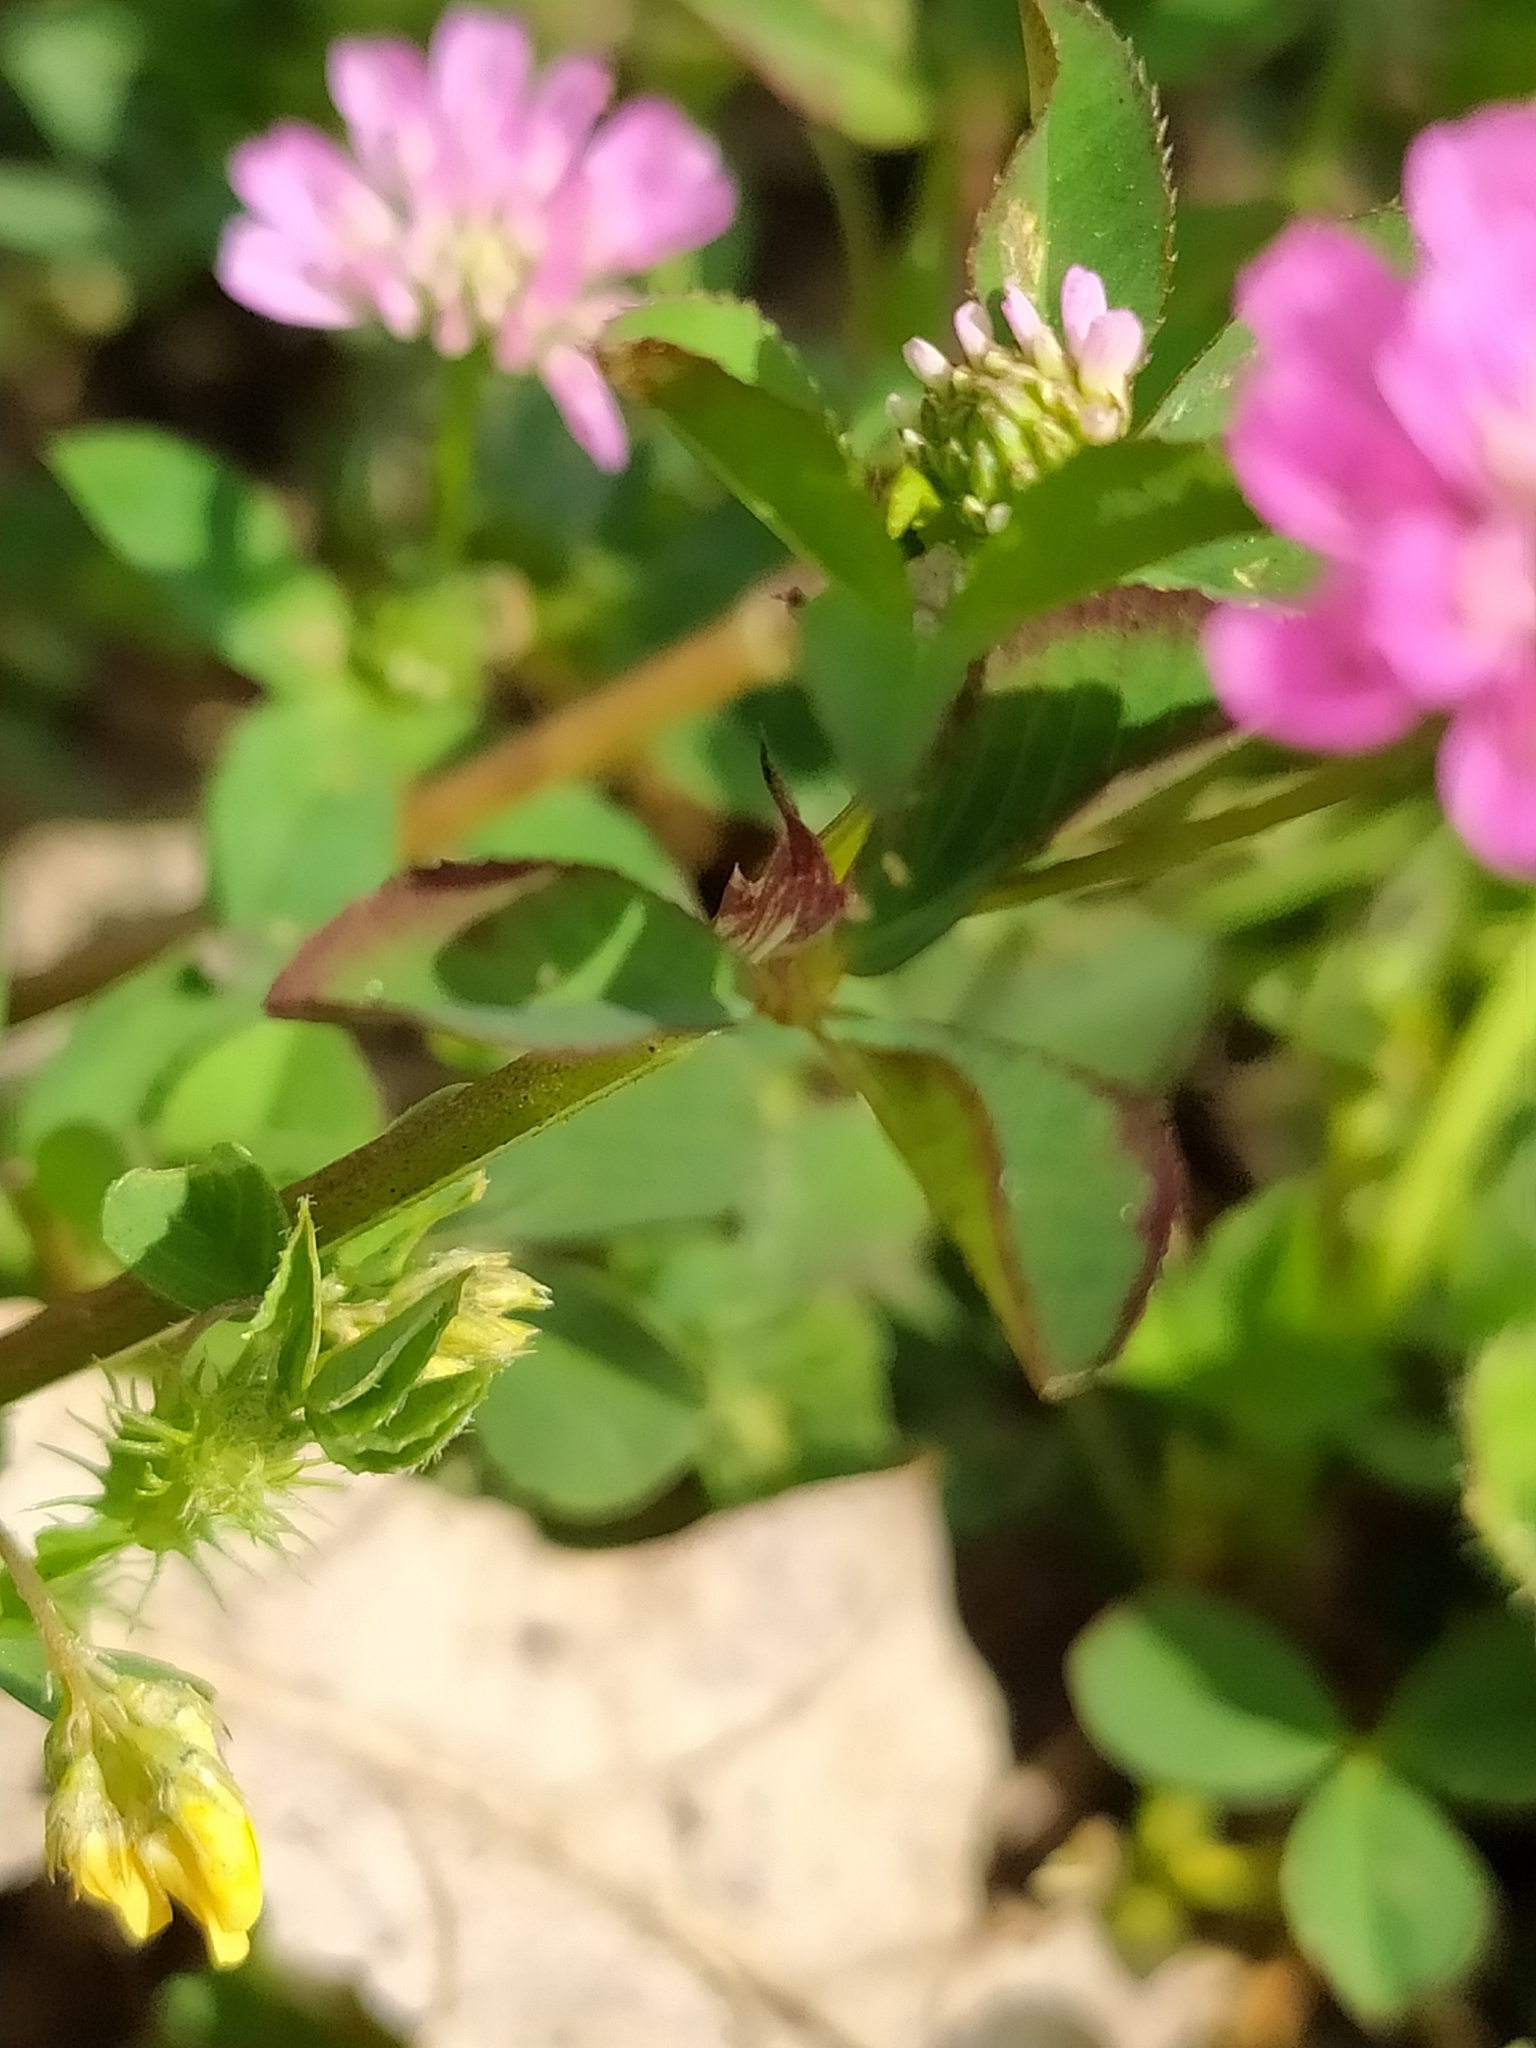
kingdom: Plantae
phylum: Tracheophyta
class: Magnoliopsida
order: Fabales
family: Fabaceae
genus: Trifolium
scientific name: Trifolium resupinatum
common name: Reversed clover
